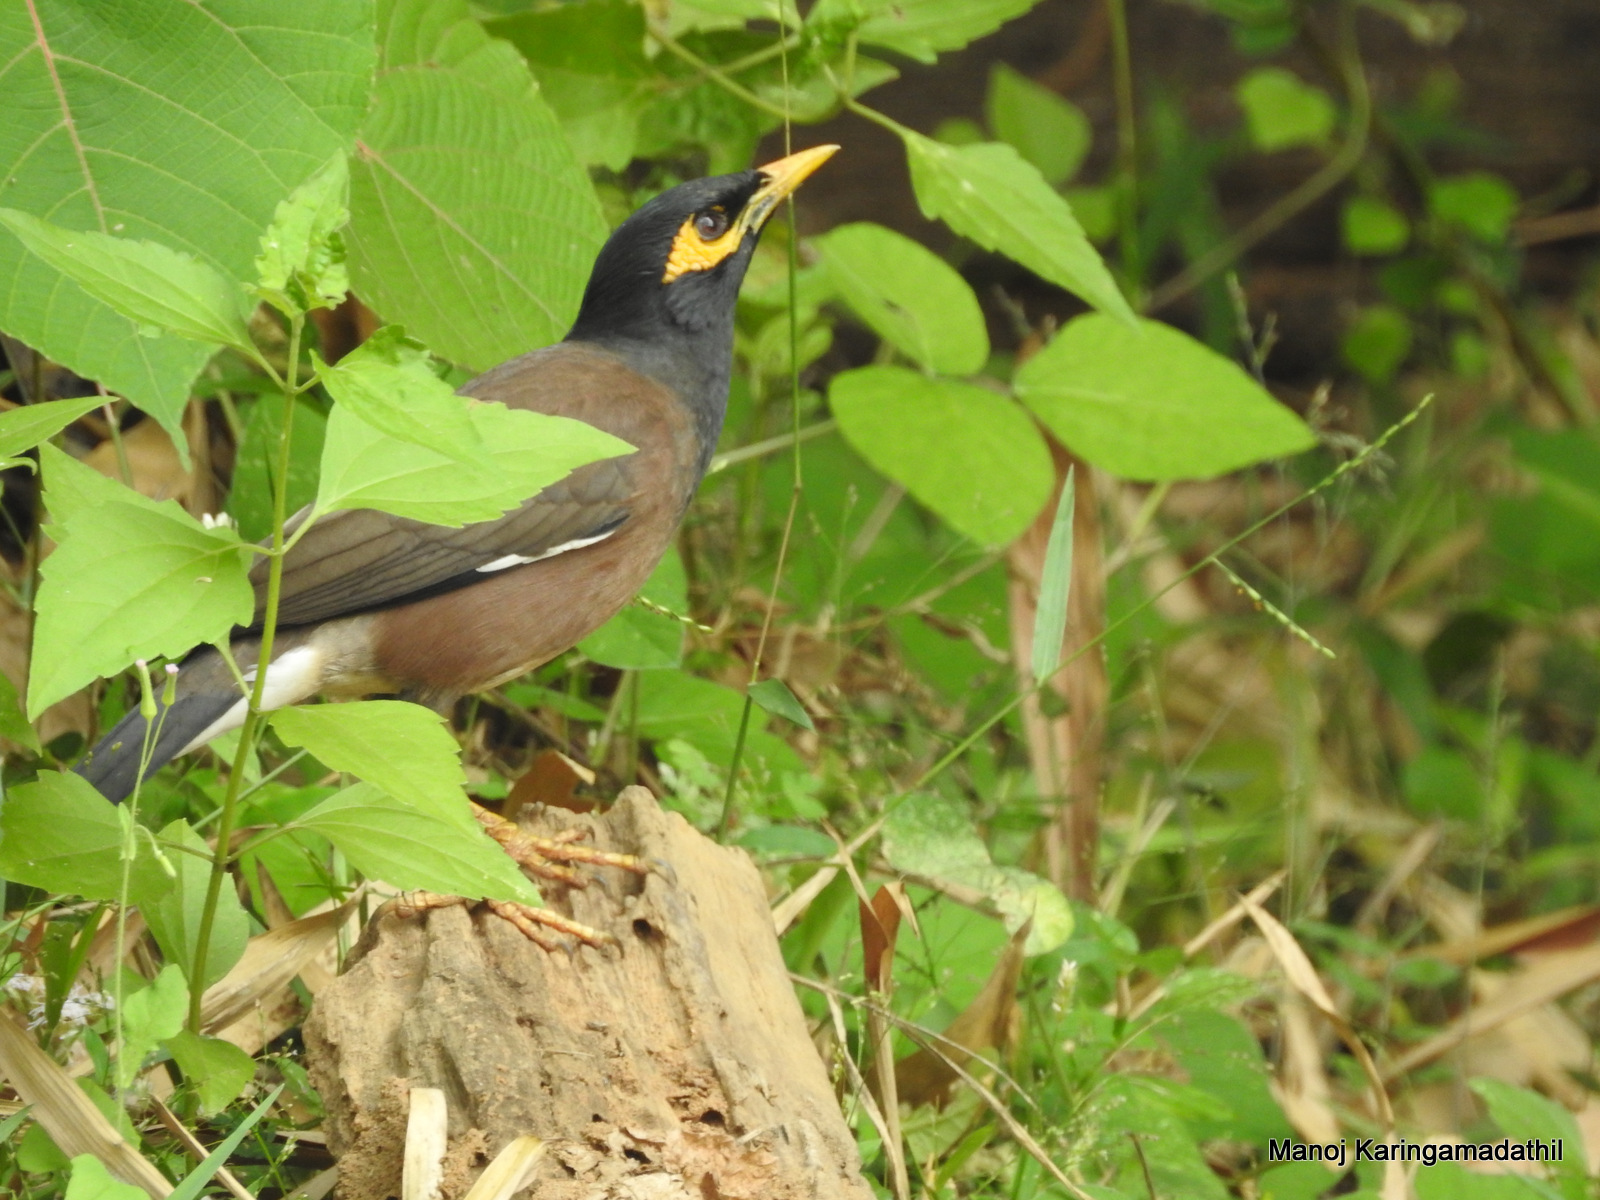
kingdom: Animalia
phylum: Chordata
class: Aves
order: Passeriformes
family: Sturnidae
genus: Acridotheres
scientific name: Acridotheres tristis
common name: Common myna
